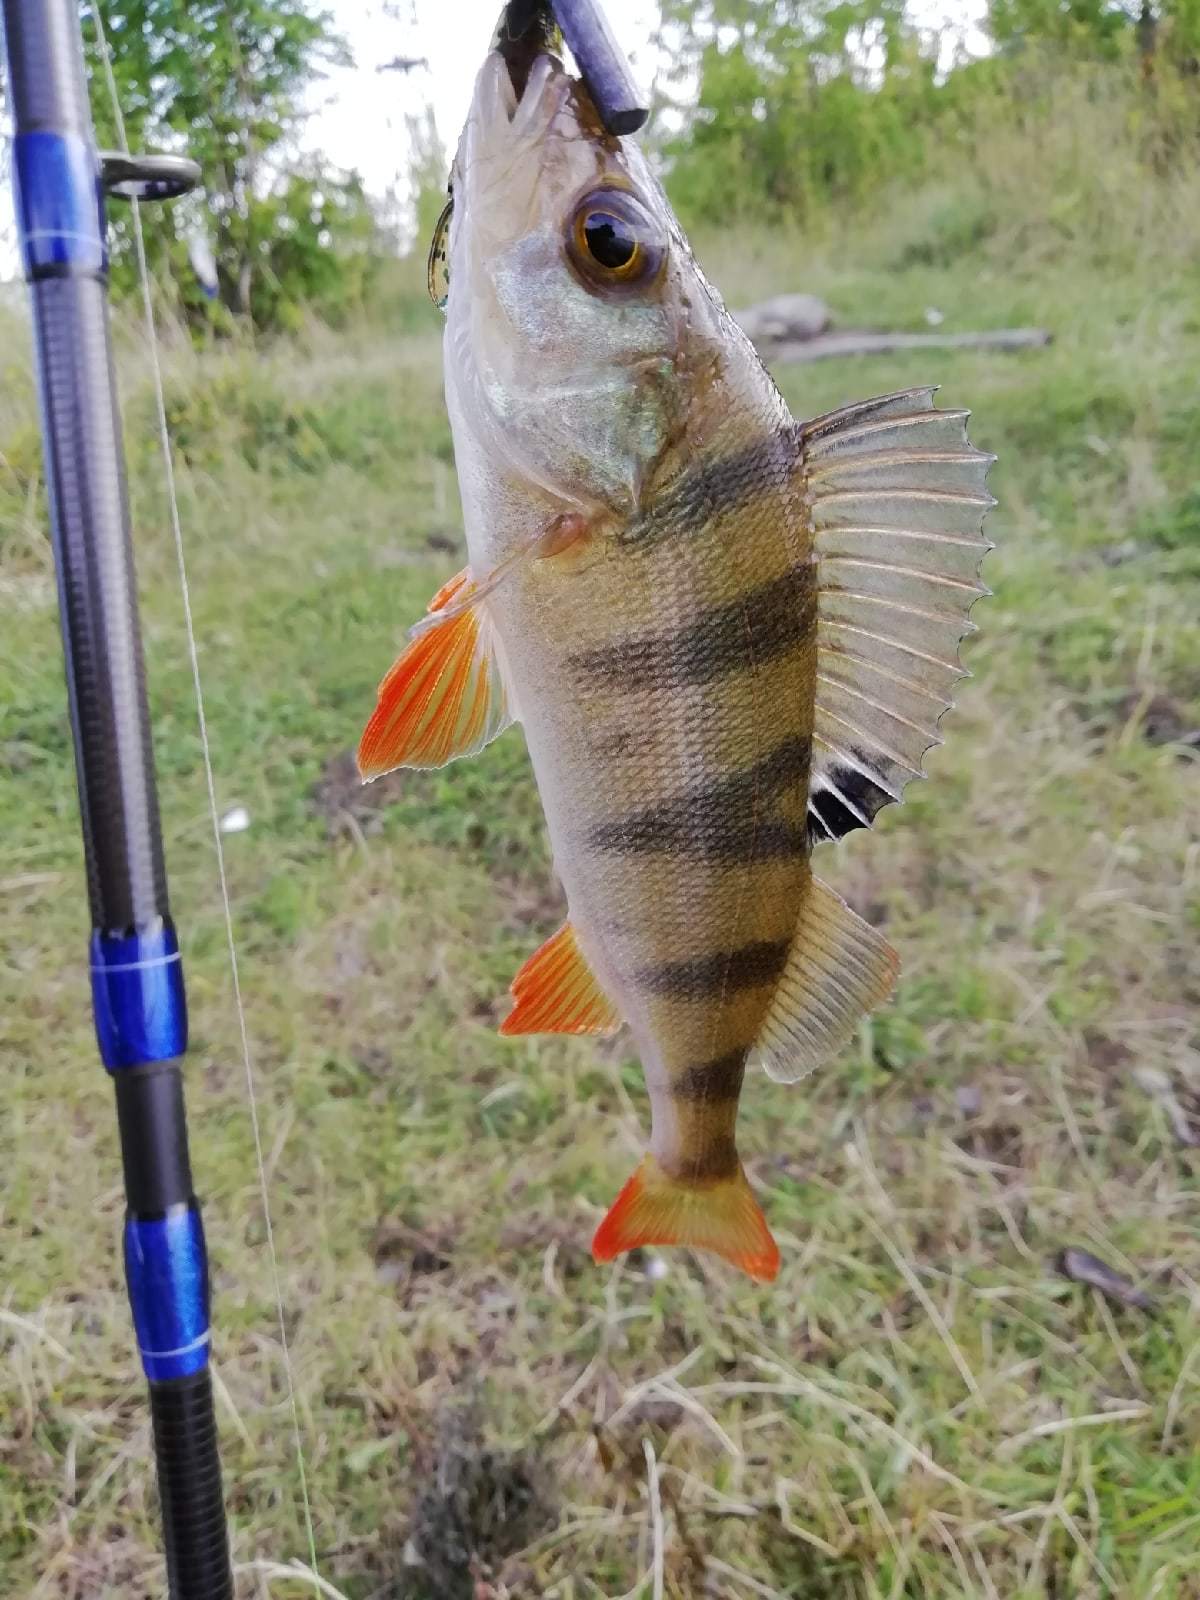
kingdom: Animalia
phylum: Chordata
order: Perciformes
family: Percidae
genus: Perca
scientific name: Perca fluviatilis
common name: Perch
